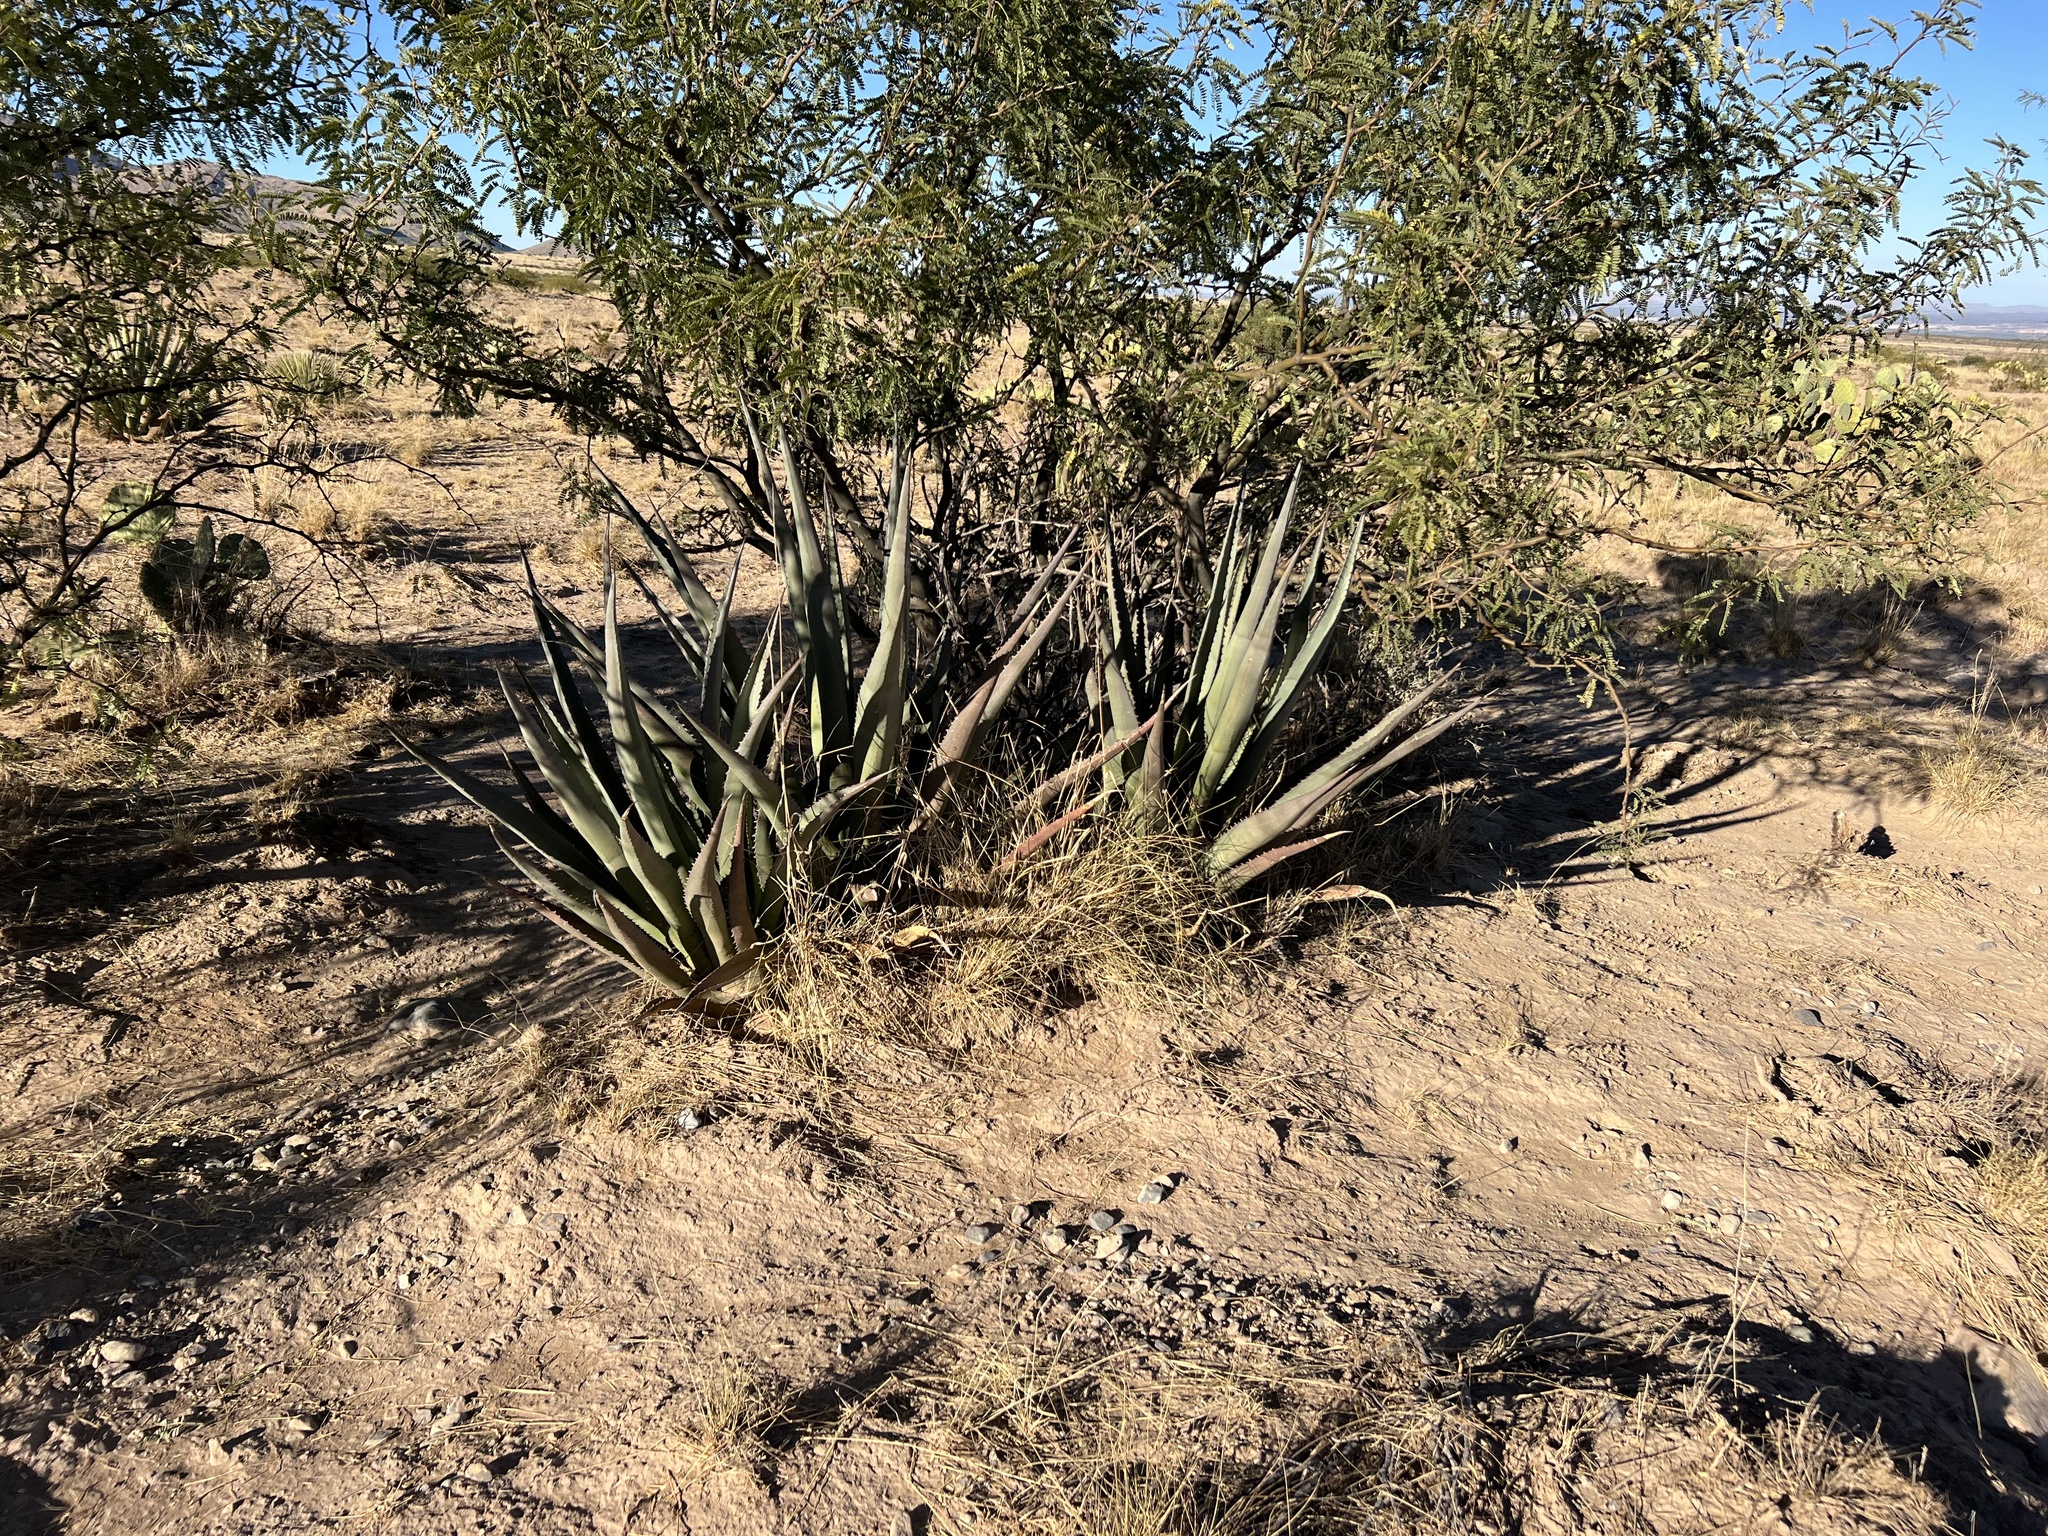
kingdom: Plantae
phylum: Tracheophyta
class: Liliopsida
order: Asparagales
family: Asparagaceae
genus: Agave
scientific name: Agave palmeri
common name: Palmer agave
